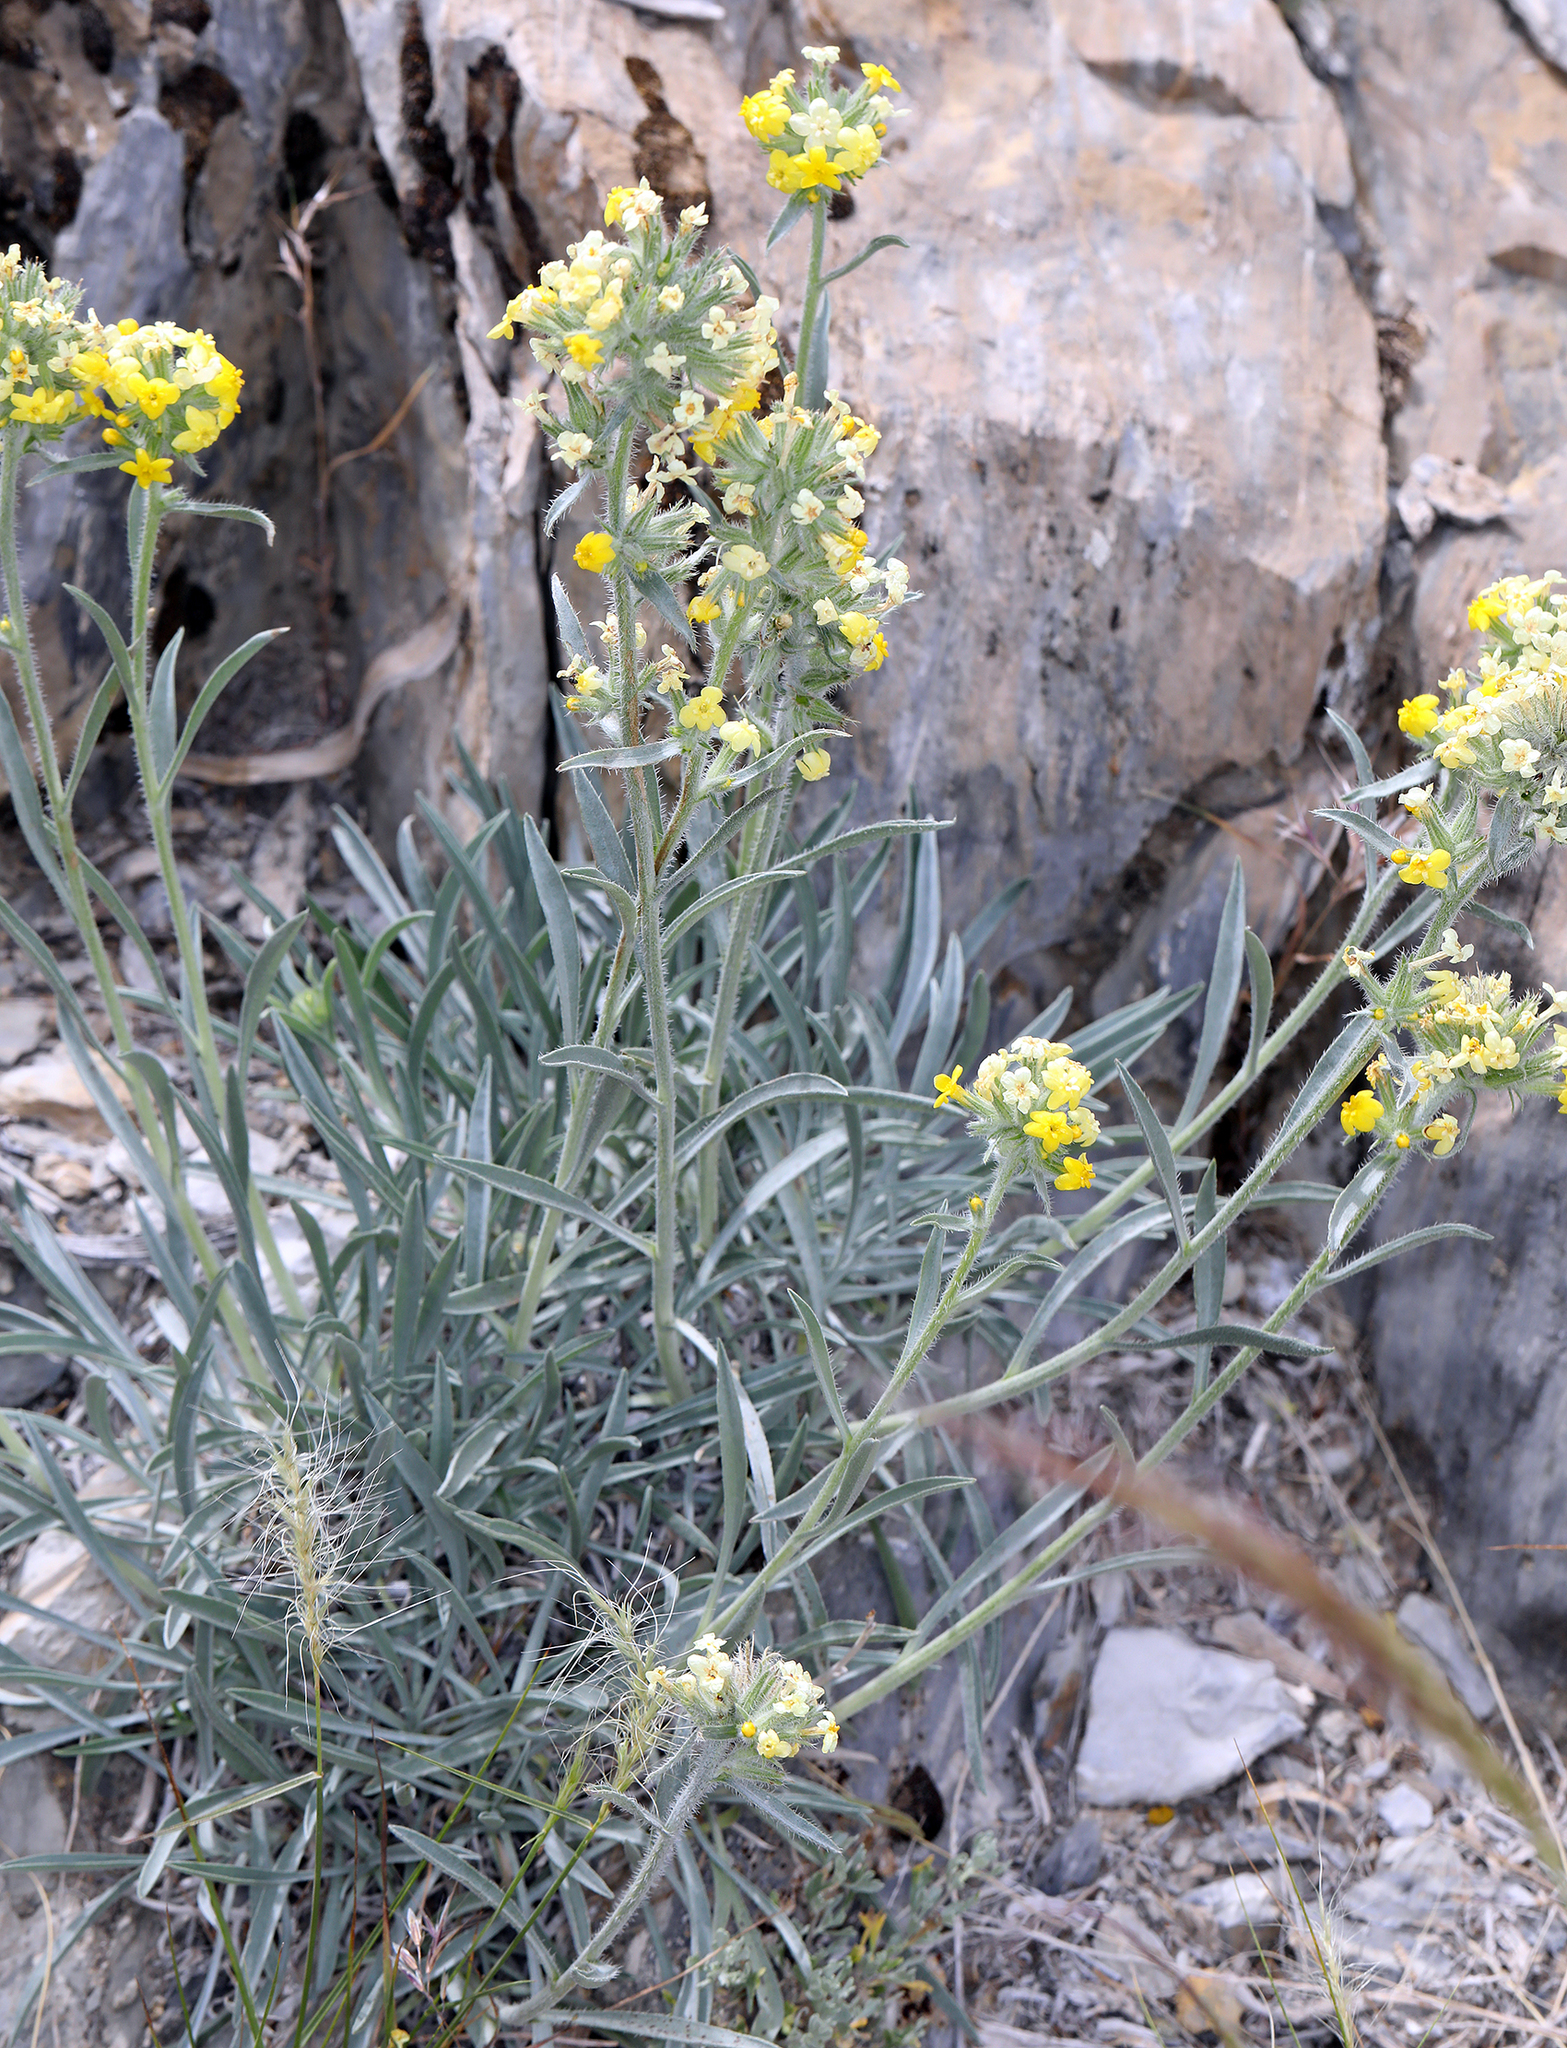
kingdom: Plantae
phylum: Tracheophyta
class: Magnoliopsida
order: Boraginales
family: Boraginaceae
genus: Oreocarya
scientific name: Oreocarya confertiflora
